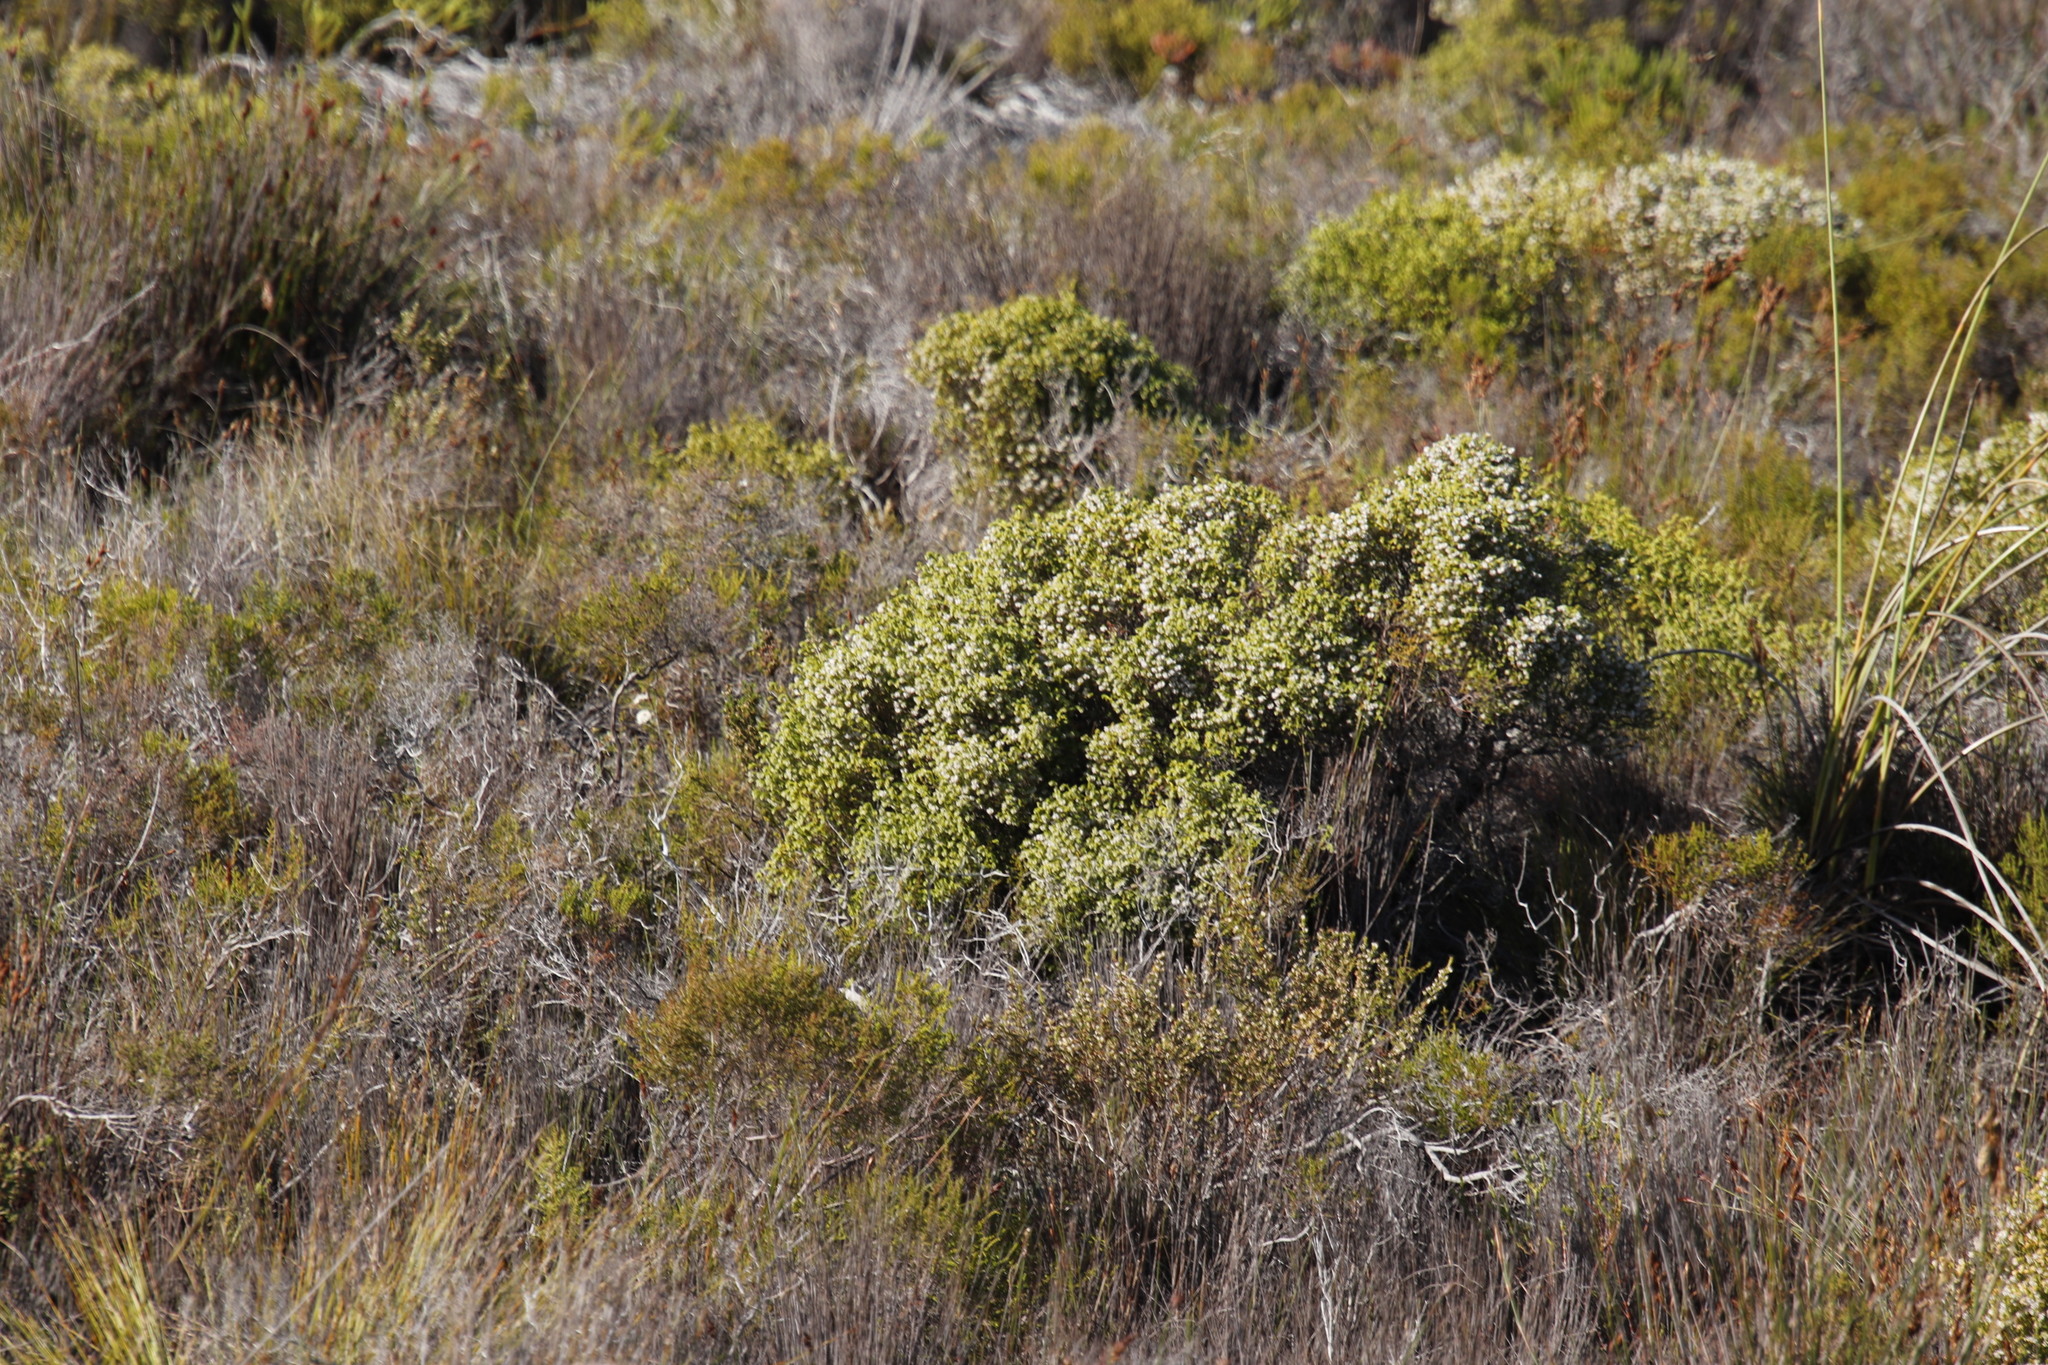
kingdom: Plantae
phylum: Tracheophyta
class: Magnoliopsida
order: Ericales
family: Ericaceae
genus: Erica
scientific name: Erica capensis
